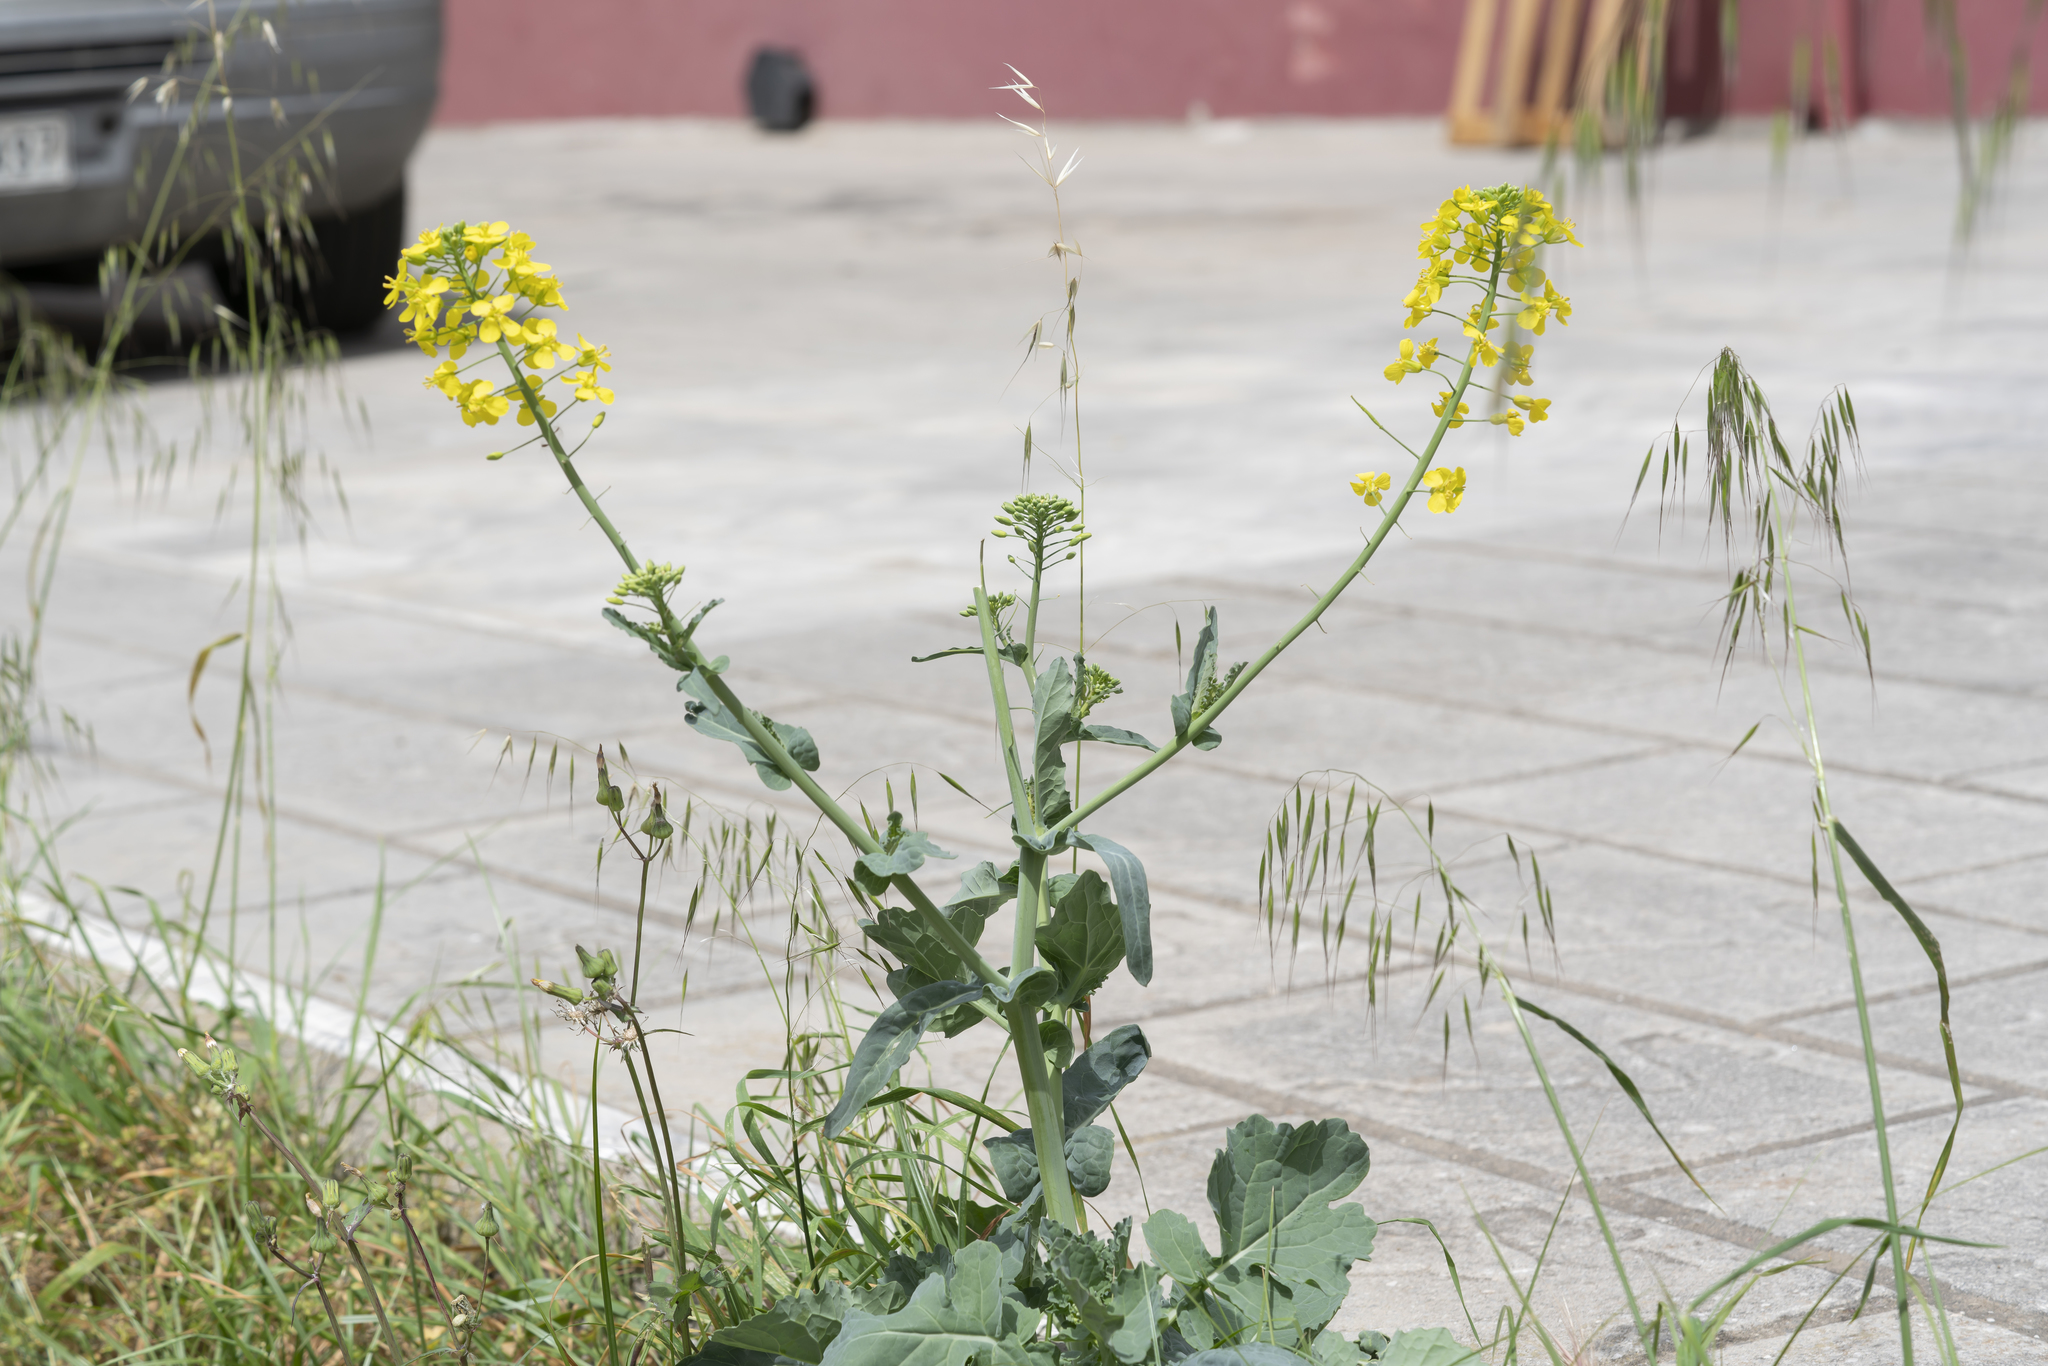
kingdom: Plantae
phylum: Tracheophyta
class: Magnoliopsida
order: Brassicales
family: Brassicaceae
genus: Brassica
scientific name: Brassica oleracea
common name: Cabbage
